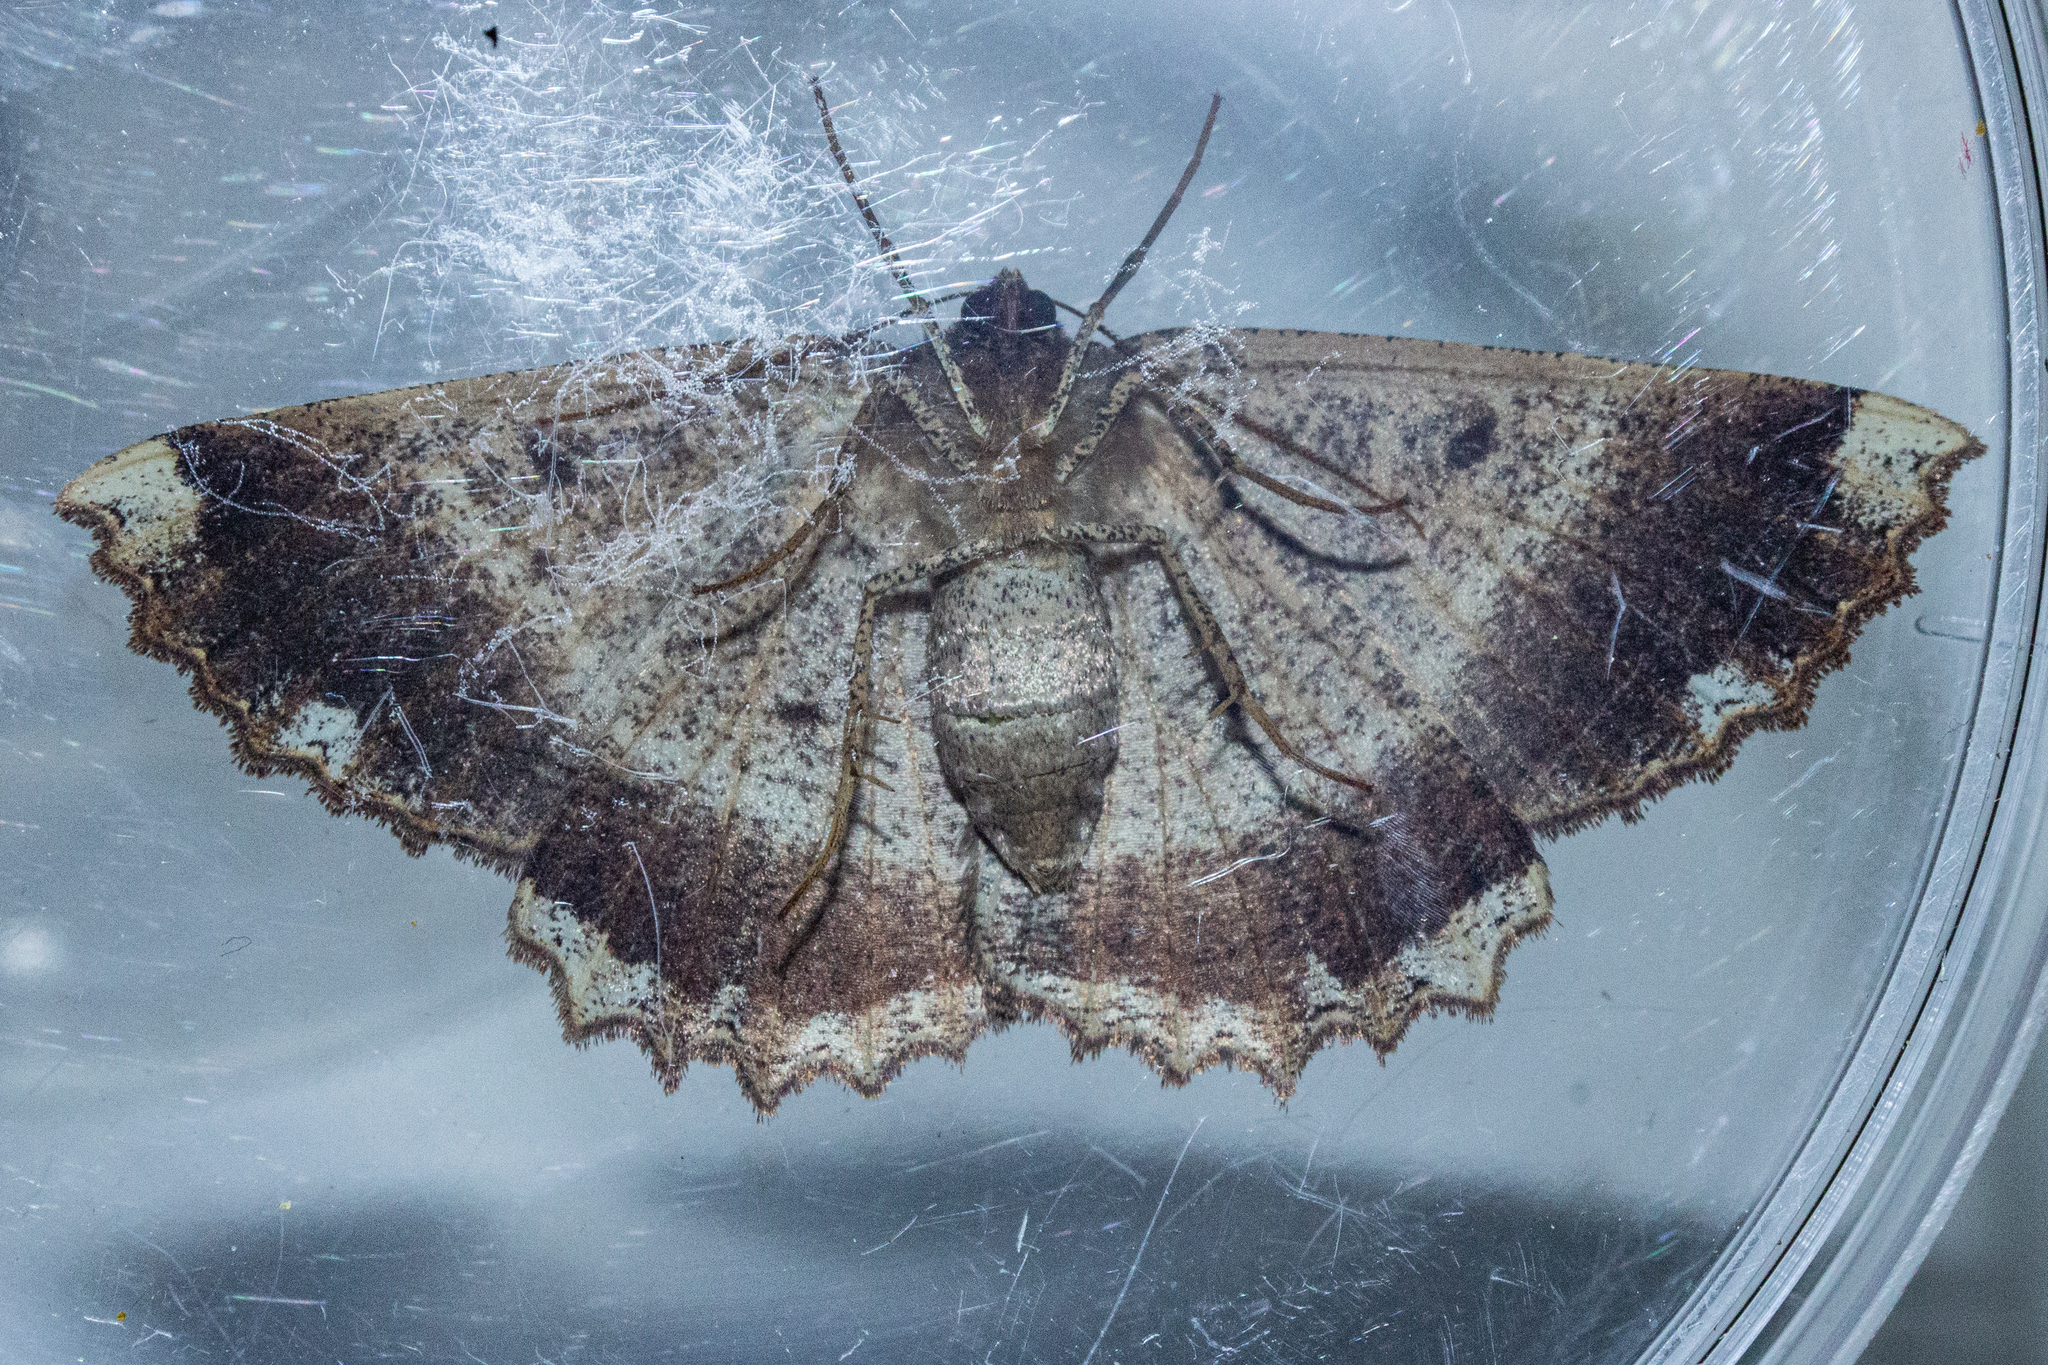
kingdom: Animalia
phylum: Arthropoda
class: Insecta
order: Lepidoptera
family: Geometridae
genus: Gellonia
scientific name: Gellonia dejectaria
